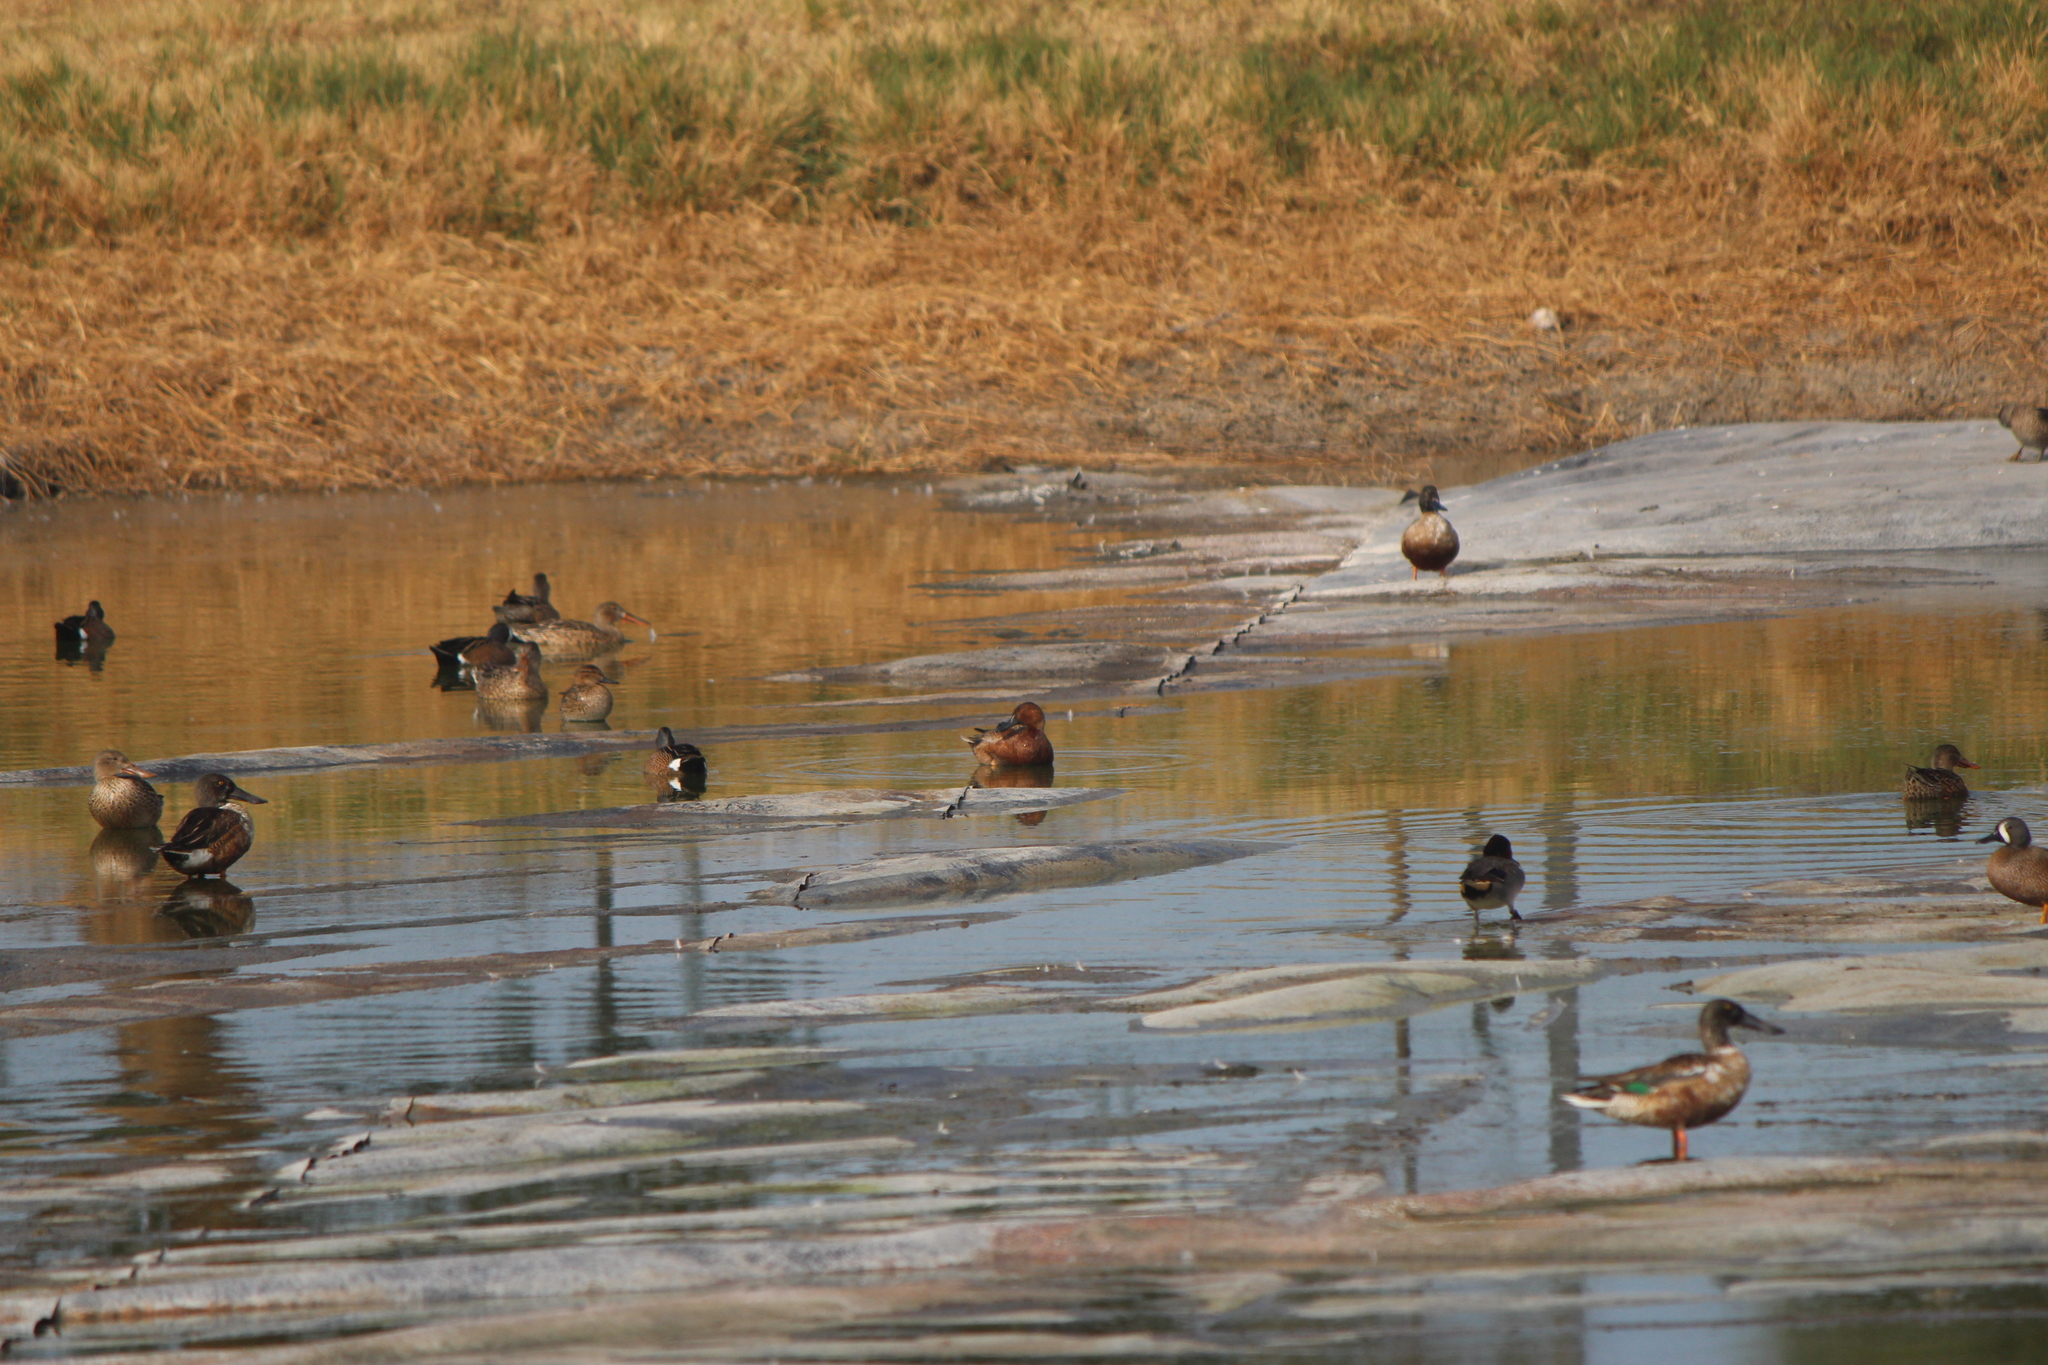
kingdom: Animalia
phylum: Chordata
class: Aves
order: Anseriformes
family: Anatidae
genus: Spatula
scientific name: Spatula cyanoptera
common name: Cinnamon teal
